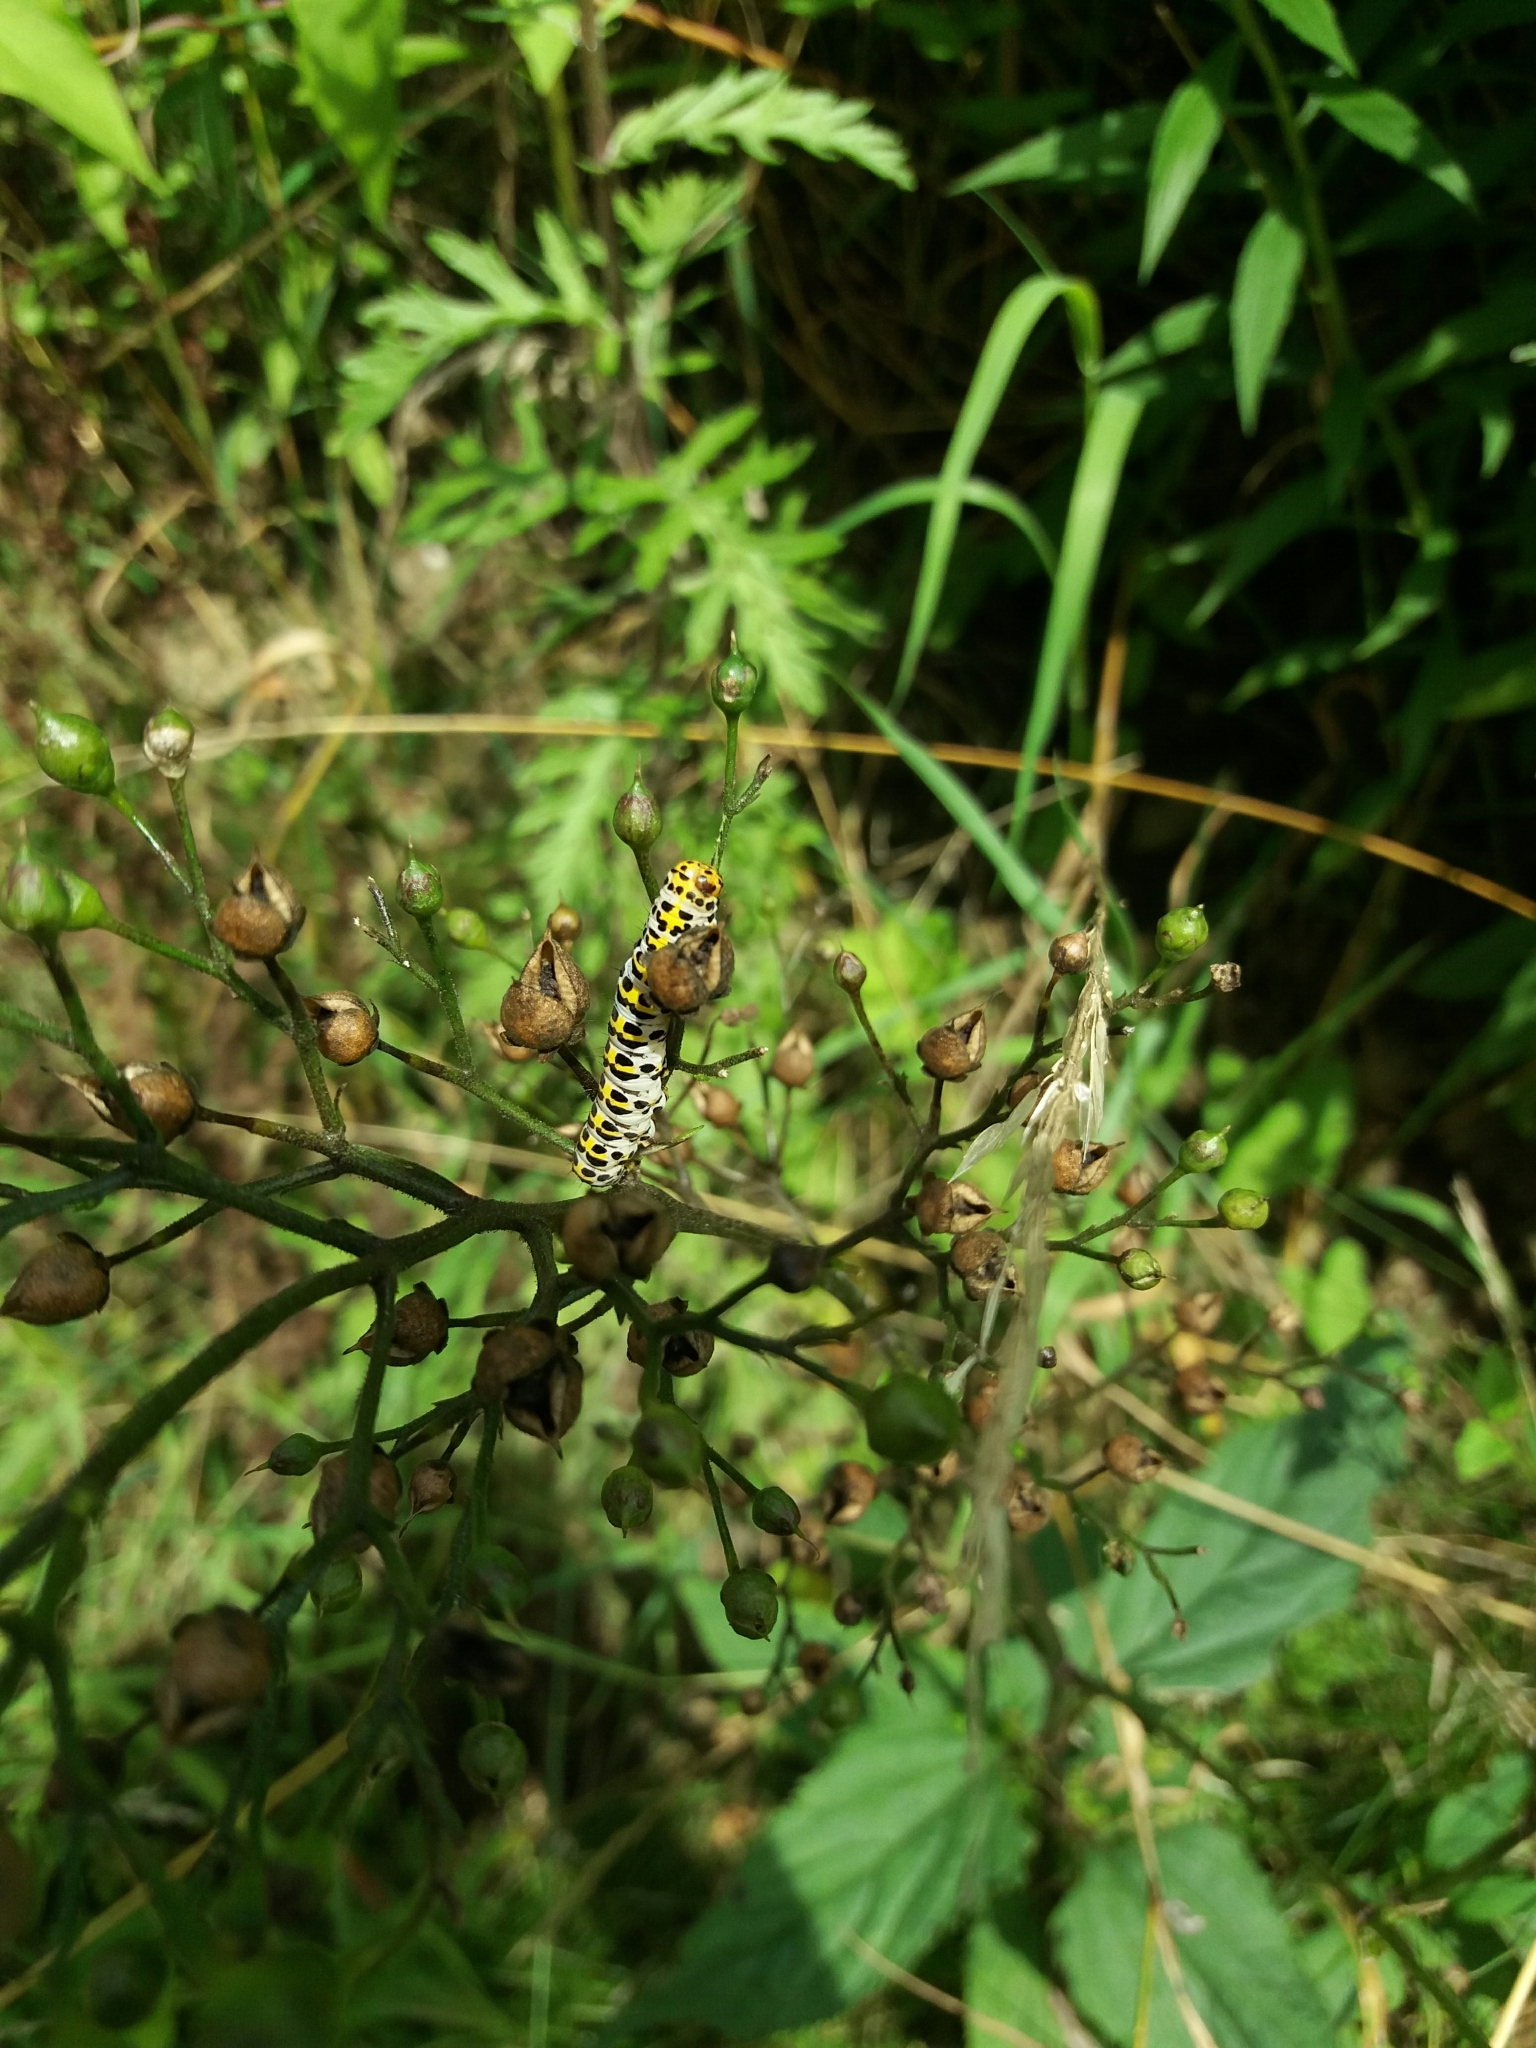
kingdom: Animalia
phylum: Arthropoda
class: Insecta
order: Lepidoptera
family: Noctuidae
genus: Shargacucullia
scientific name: Shargacucullia scrophulariae
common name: Water betony
